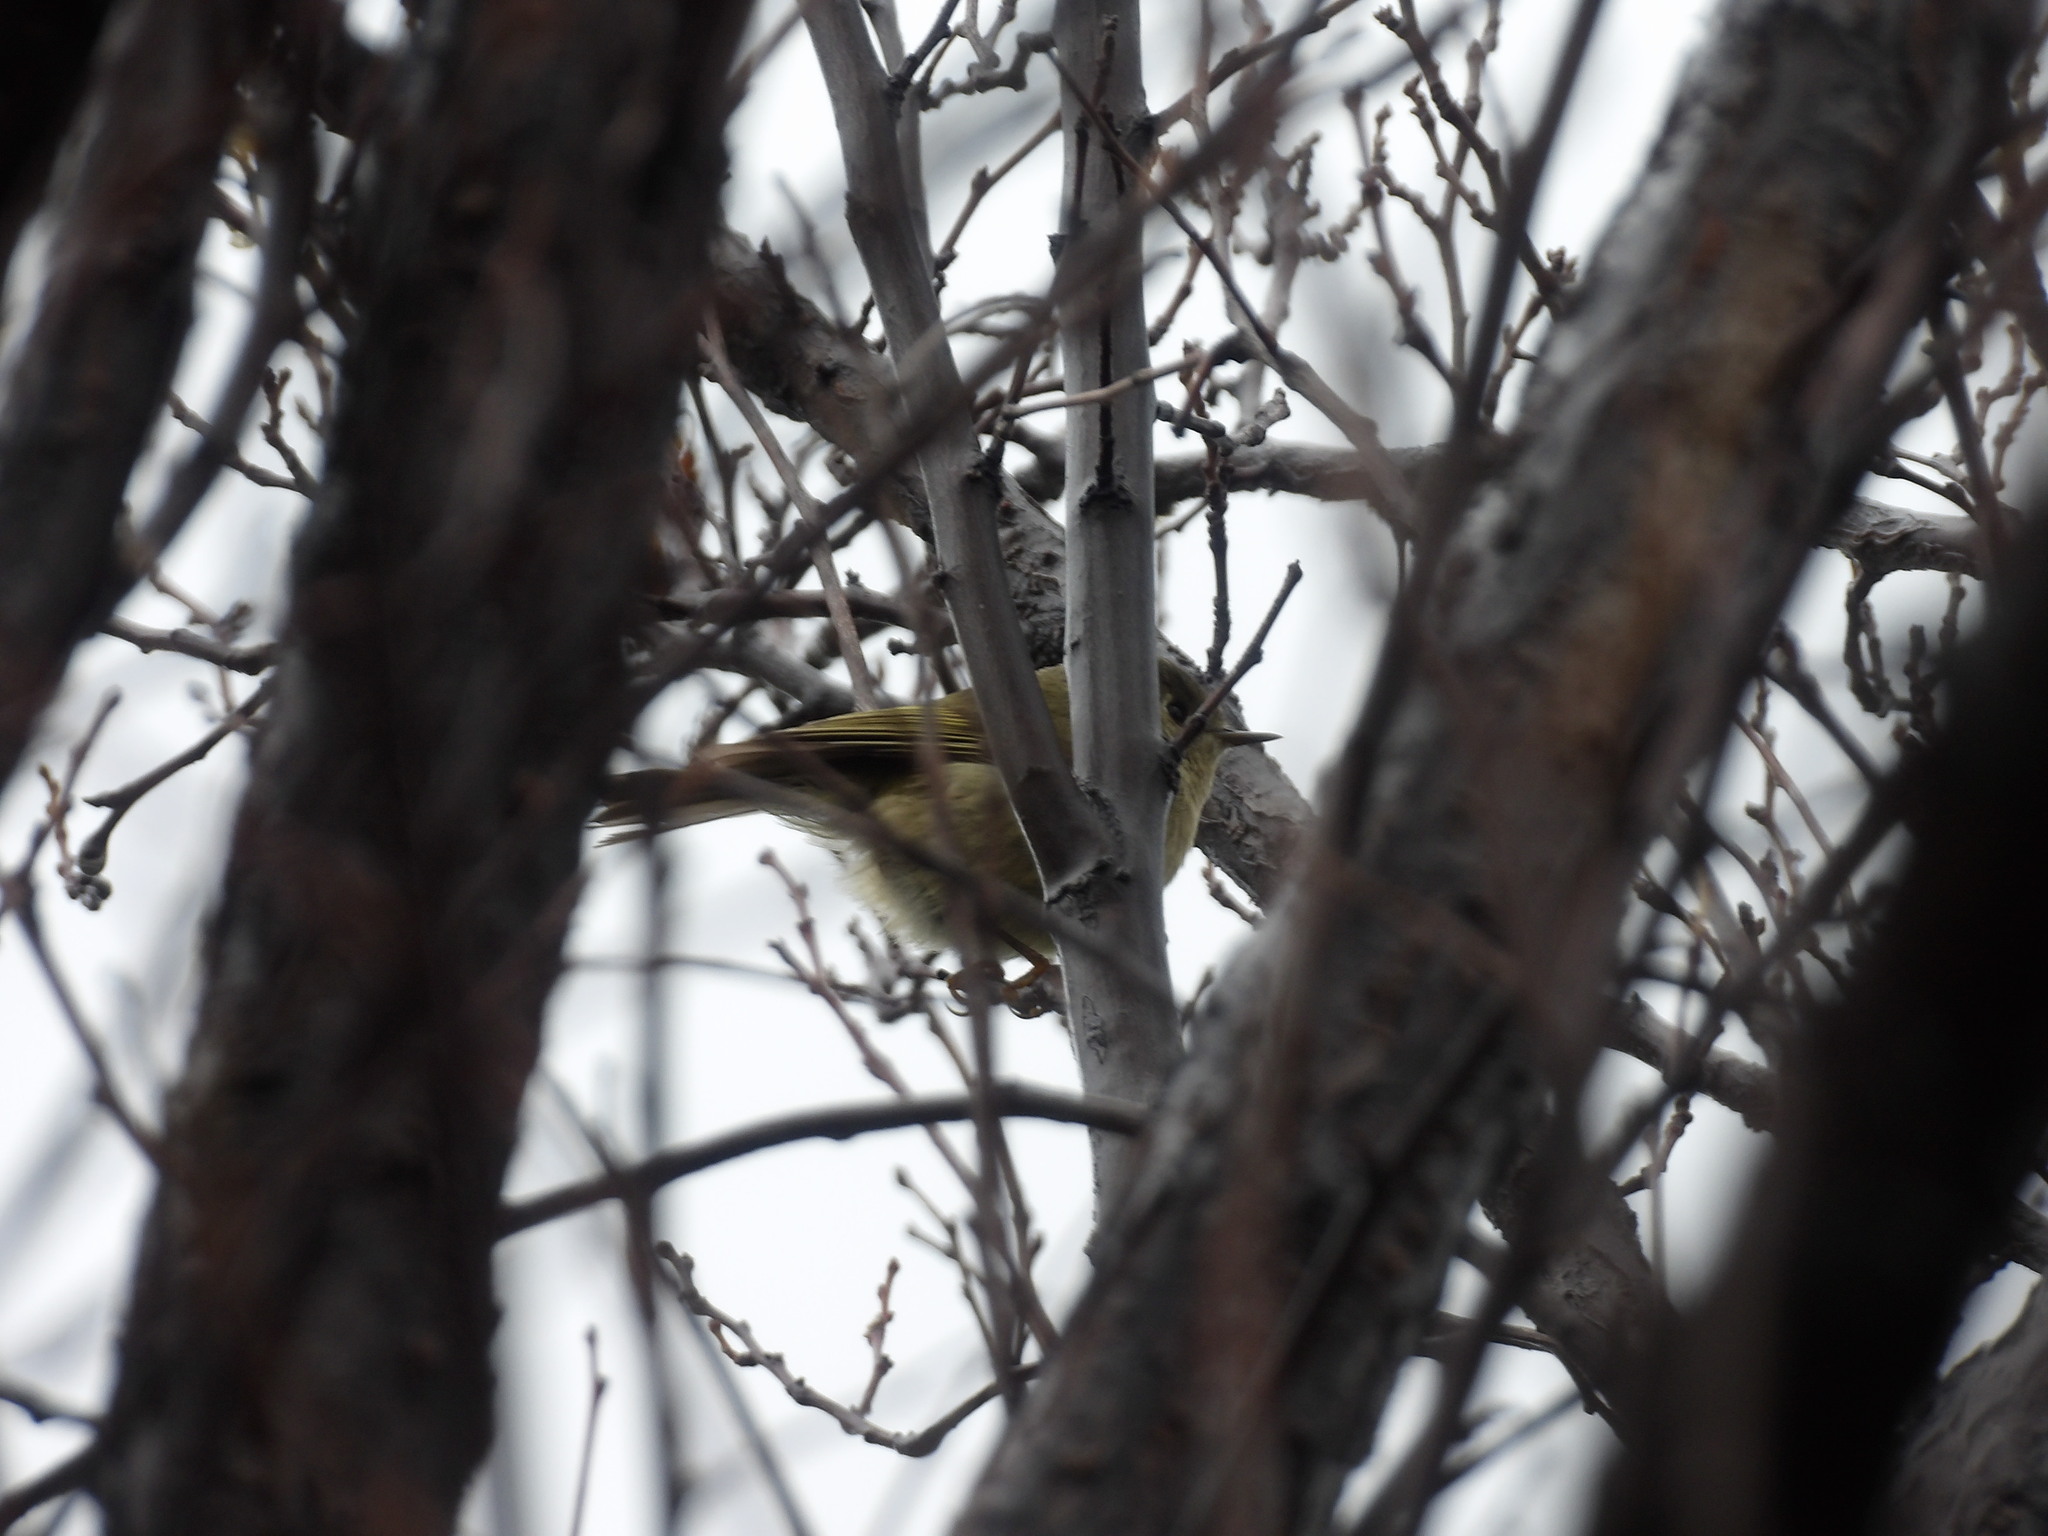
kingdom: Animalia
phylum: Chordata
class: Aves
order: Passeriformes
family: Regulidae
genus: Regulus
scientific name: Regulus calendula
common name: Ruby-crowned kinglet
